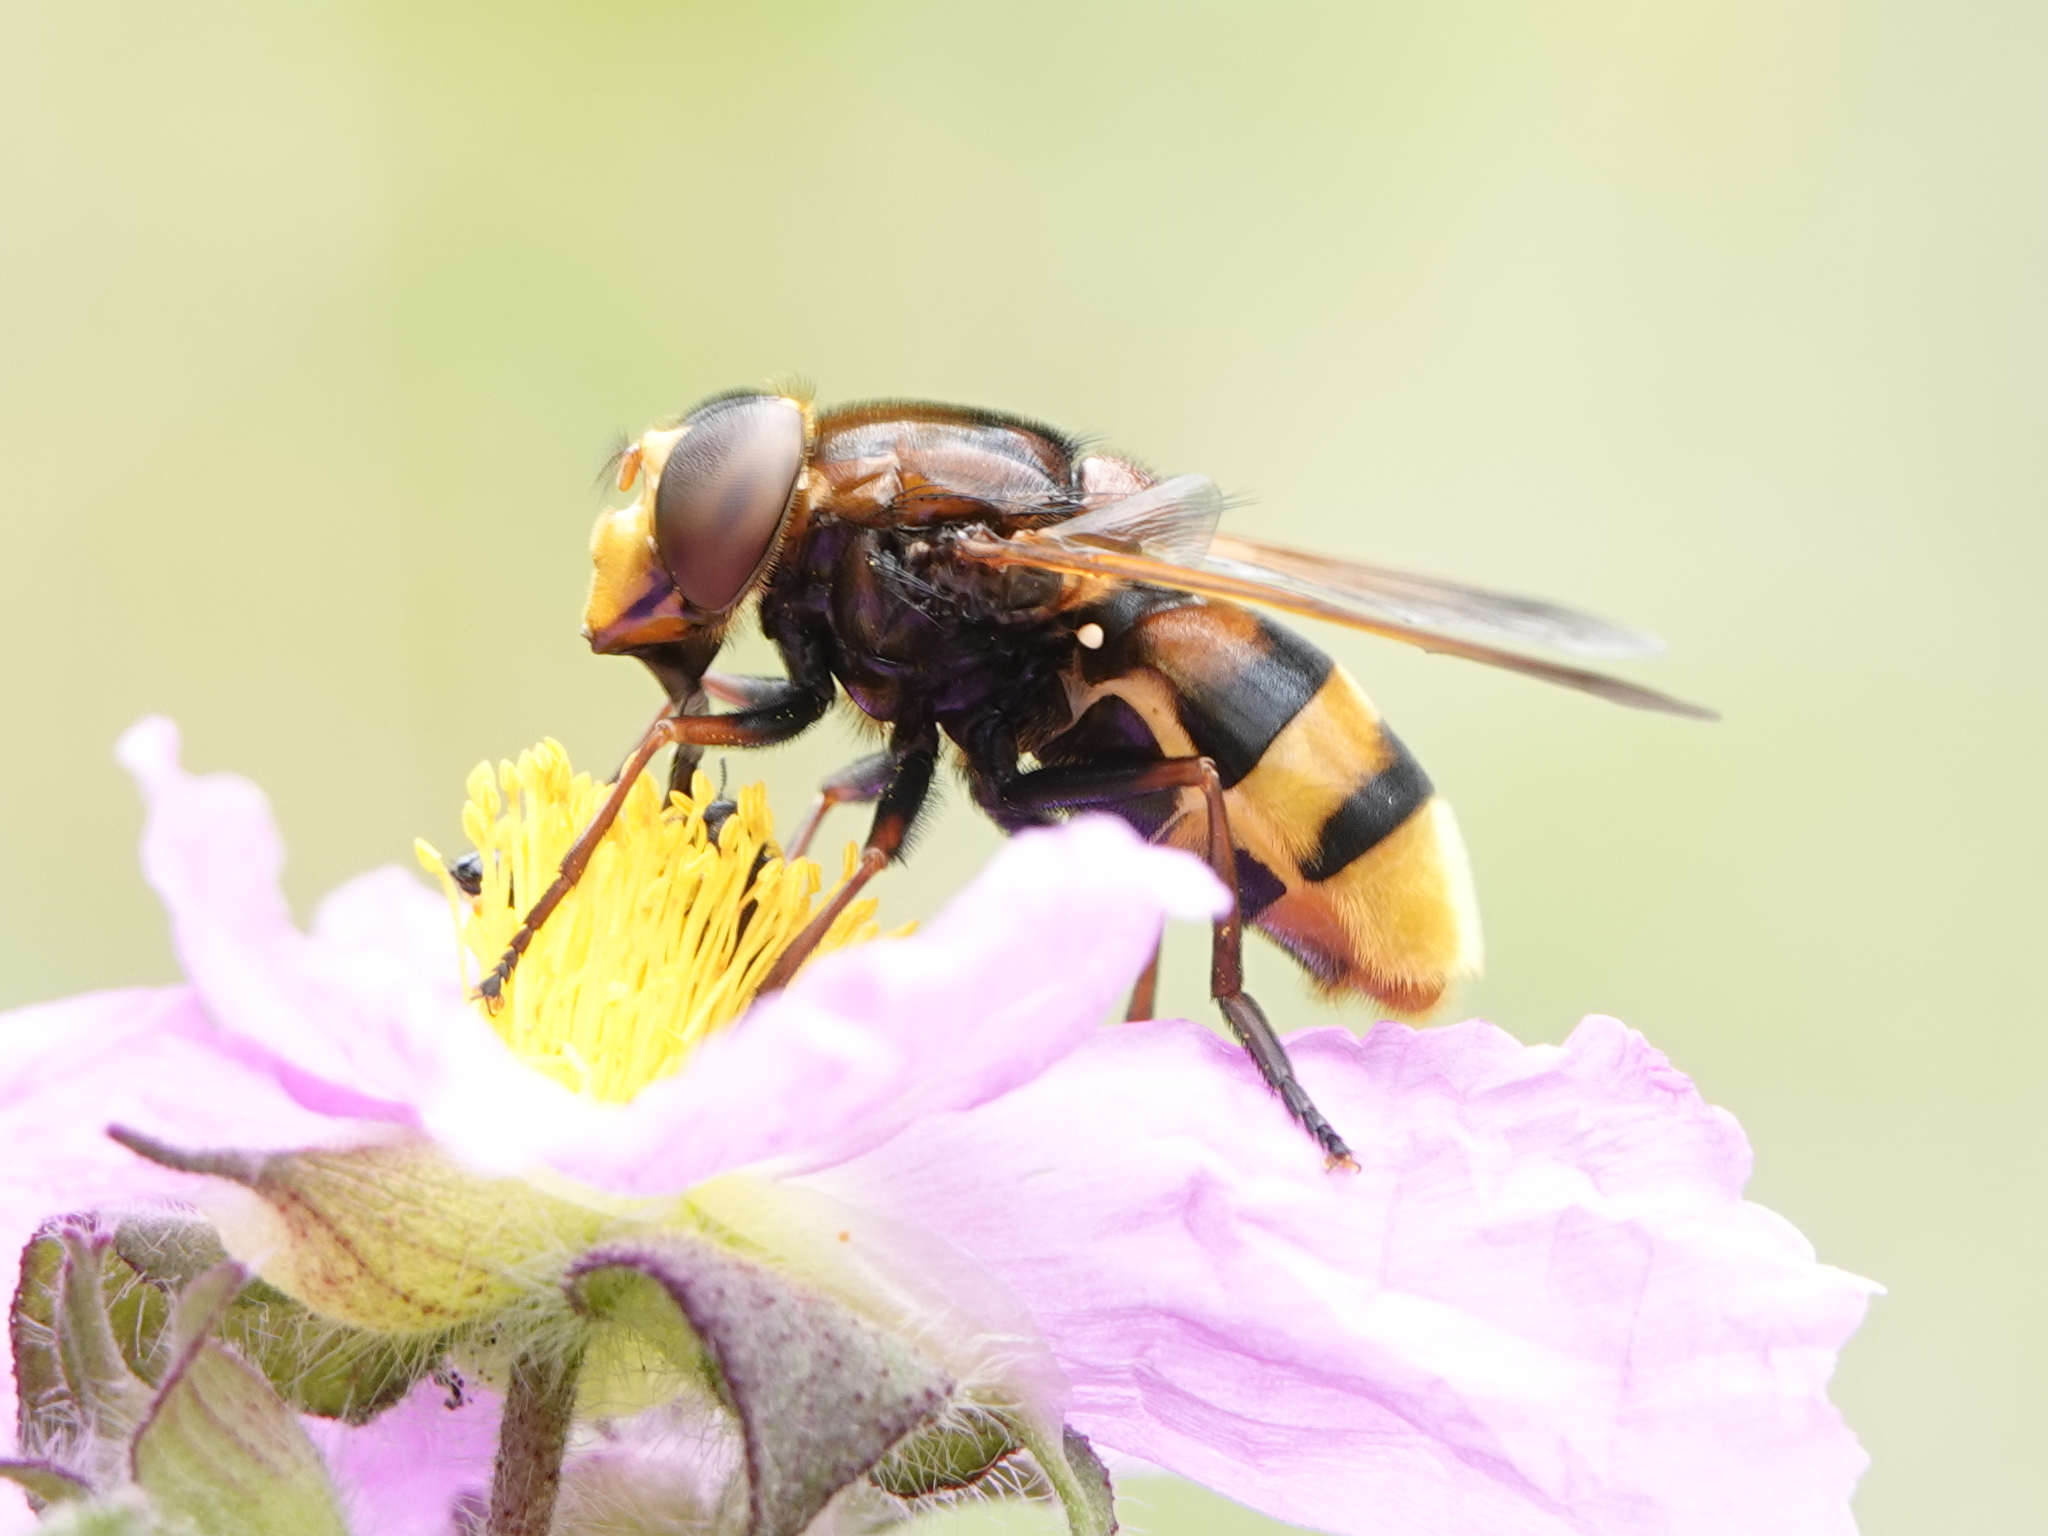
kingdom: Animalia
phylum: Arthropoda
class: Insecta
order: Diptera
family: Syrphidae
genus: Volucella
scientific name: Volucella zonaria
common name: Hornet hoverfly
